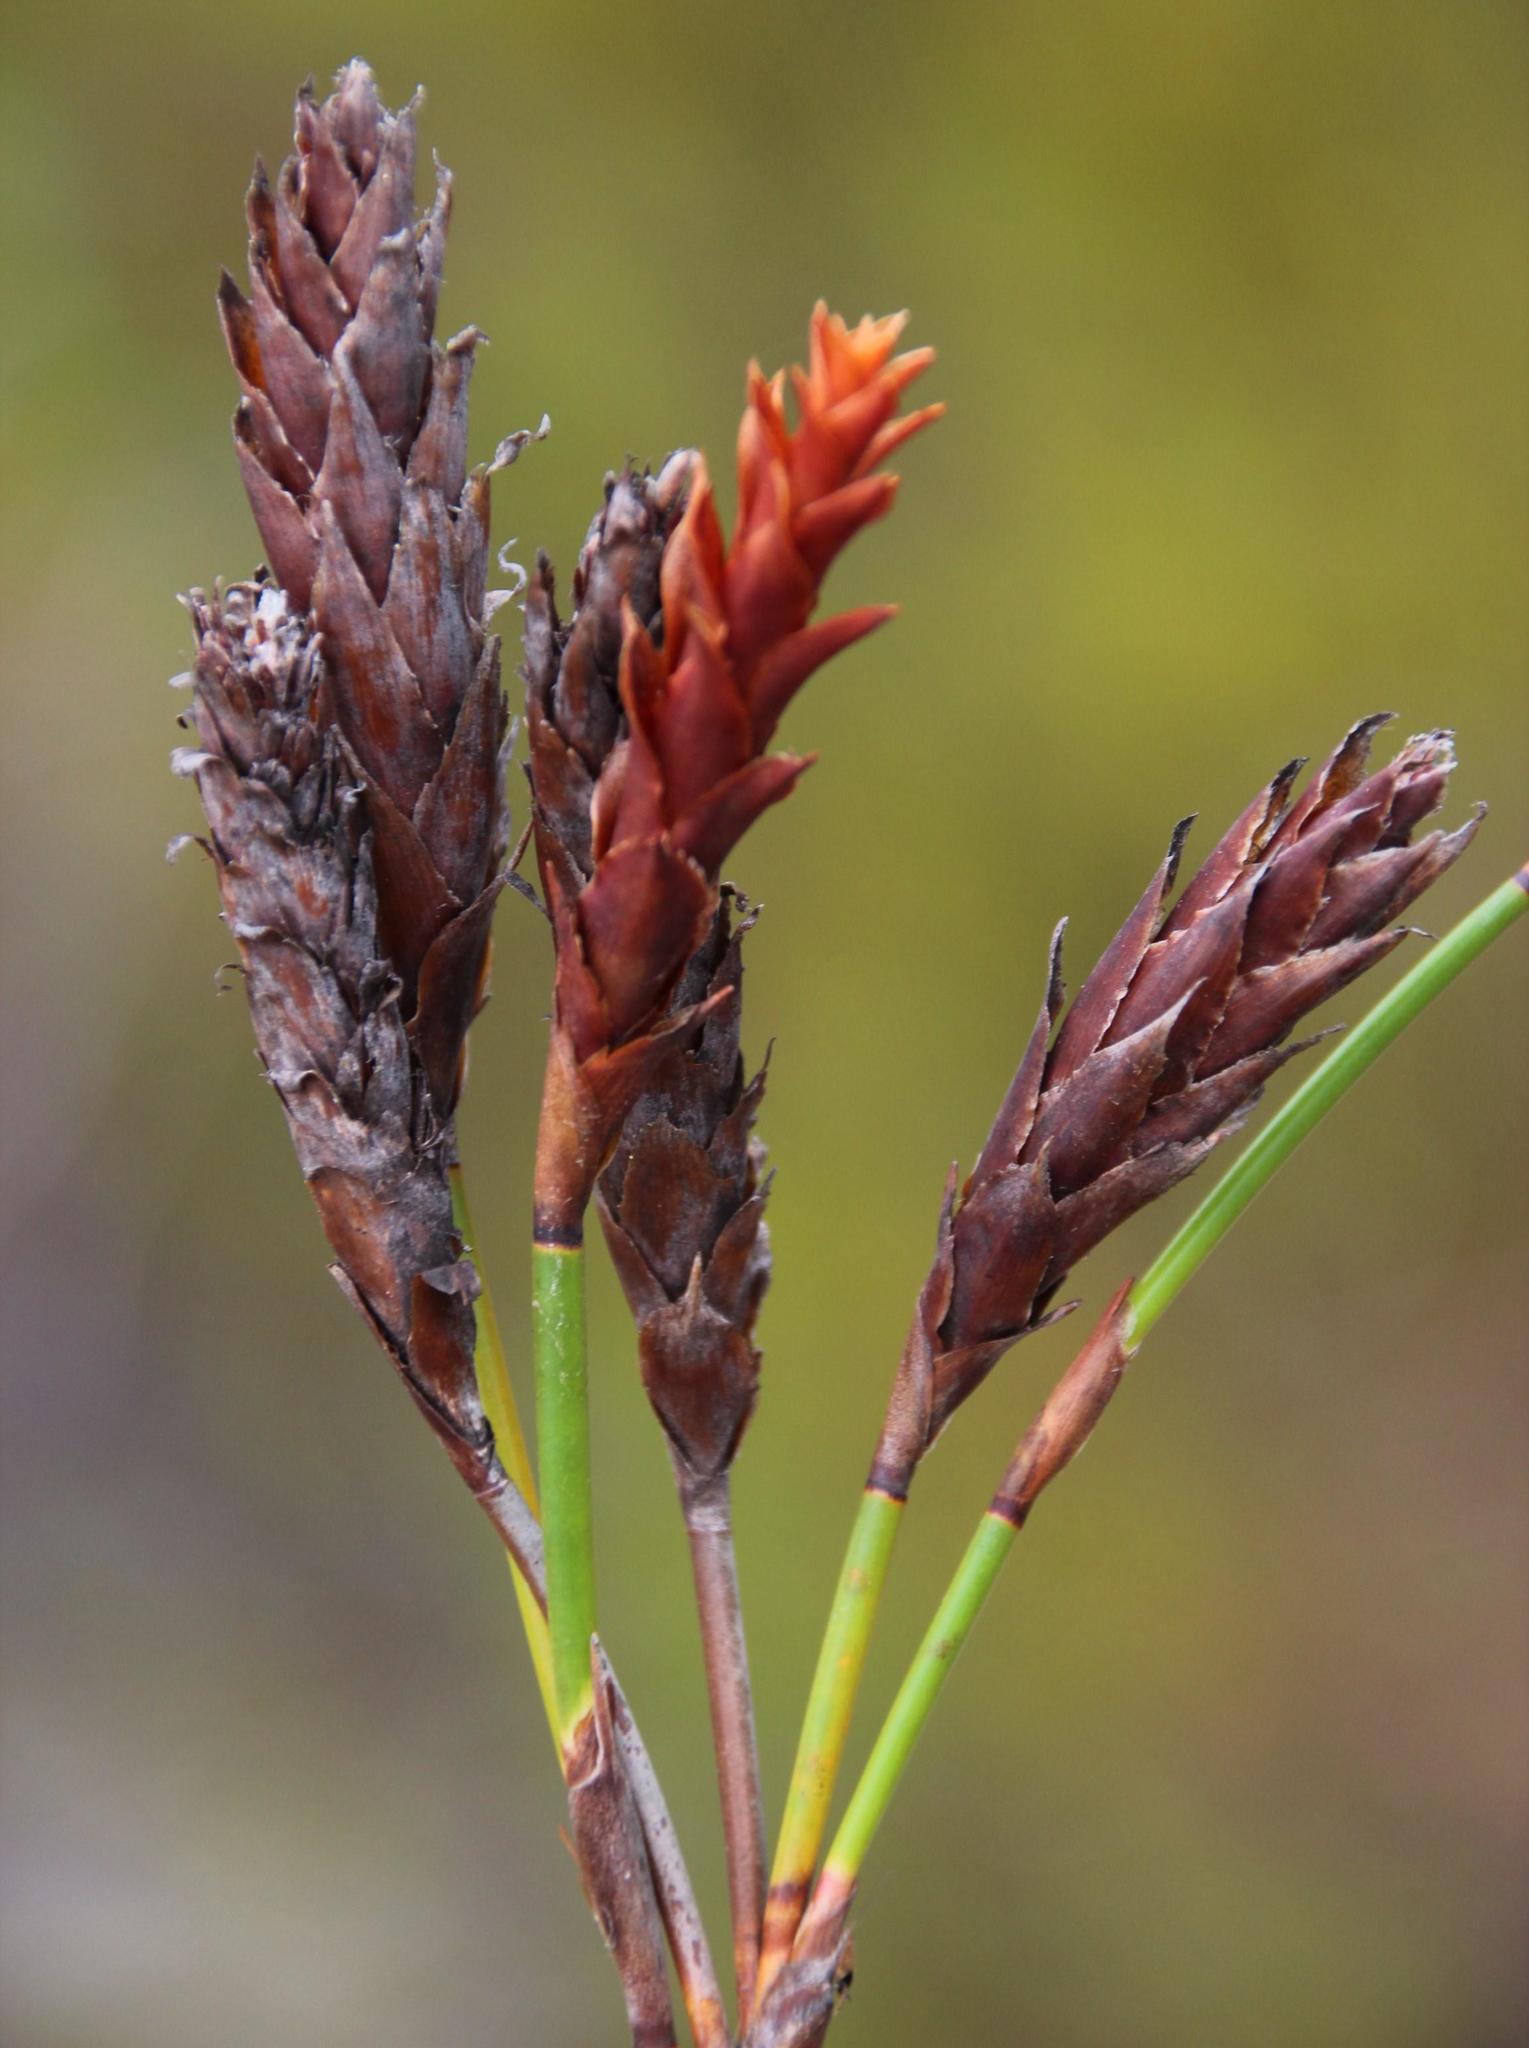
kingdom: Plantae
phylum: Tracheophyta
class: Liliopsida
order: Poales
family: Restionaceae
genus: Restio
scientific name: Restio bifarius
